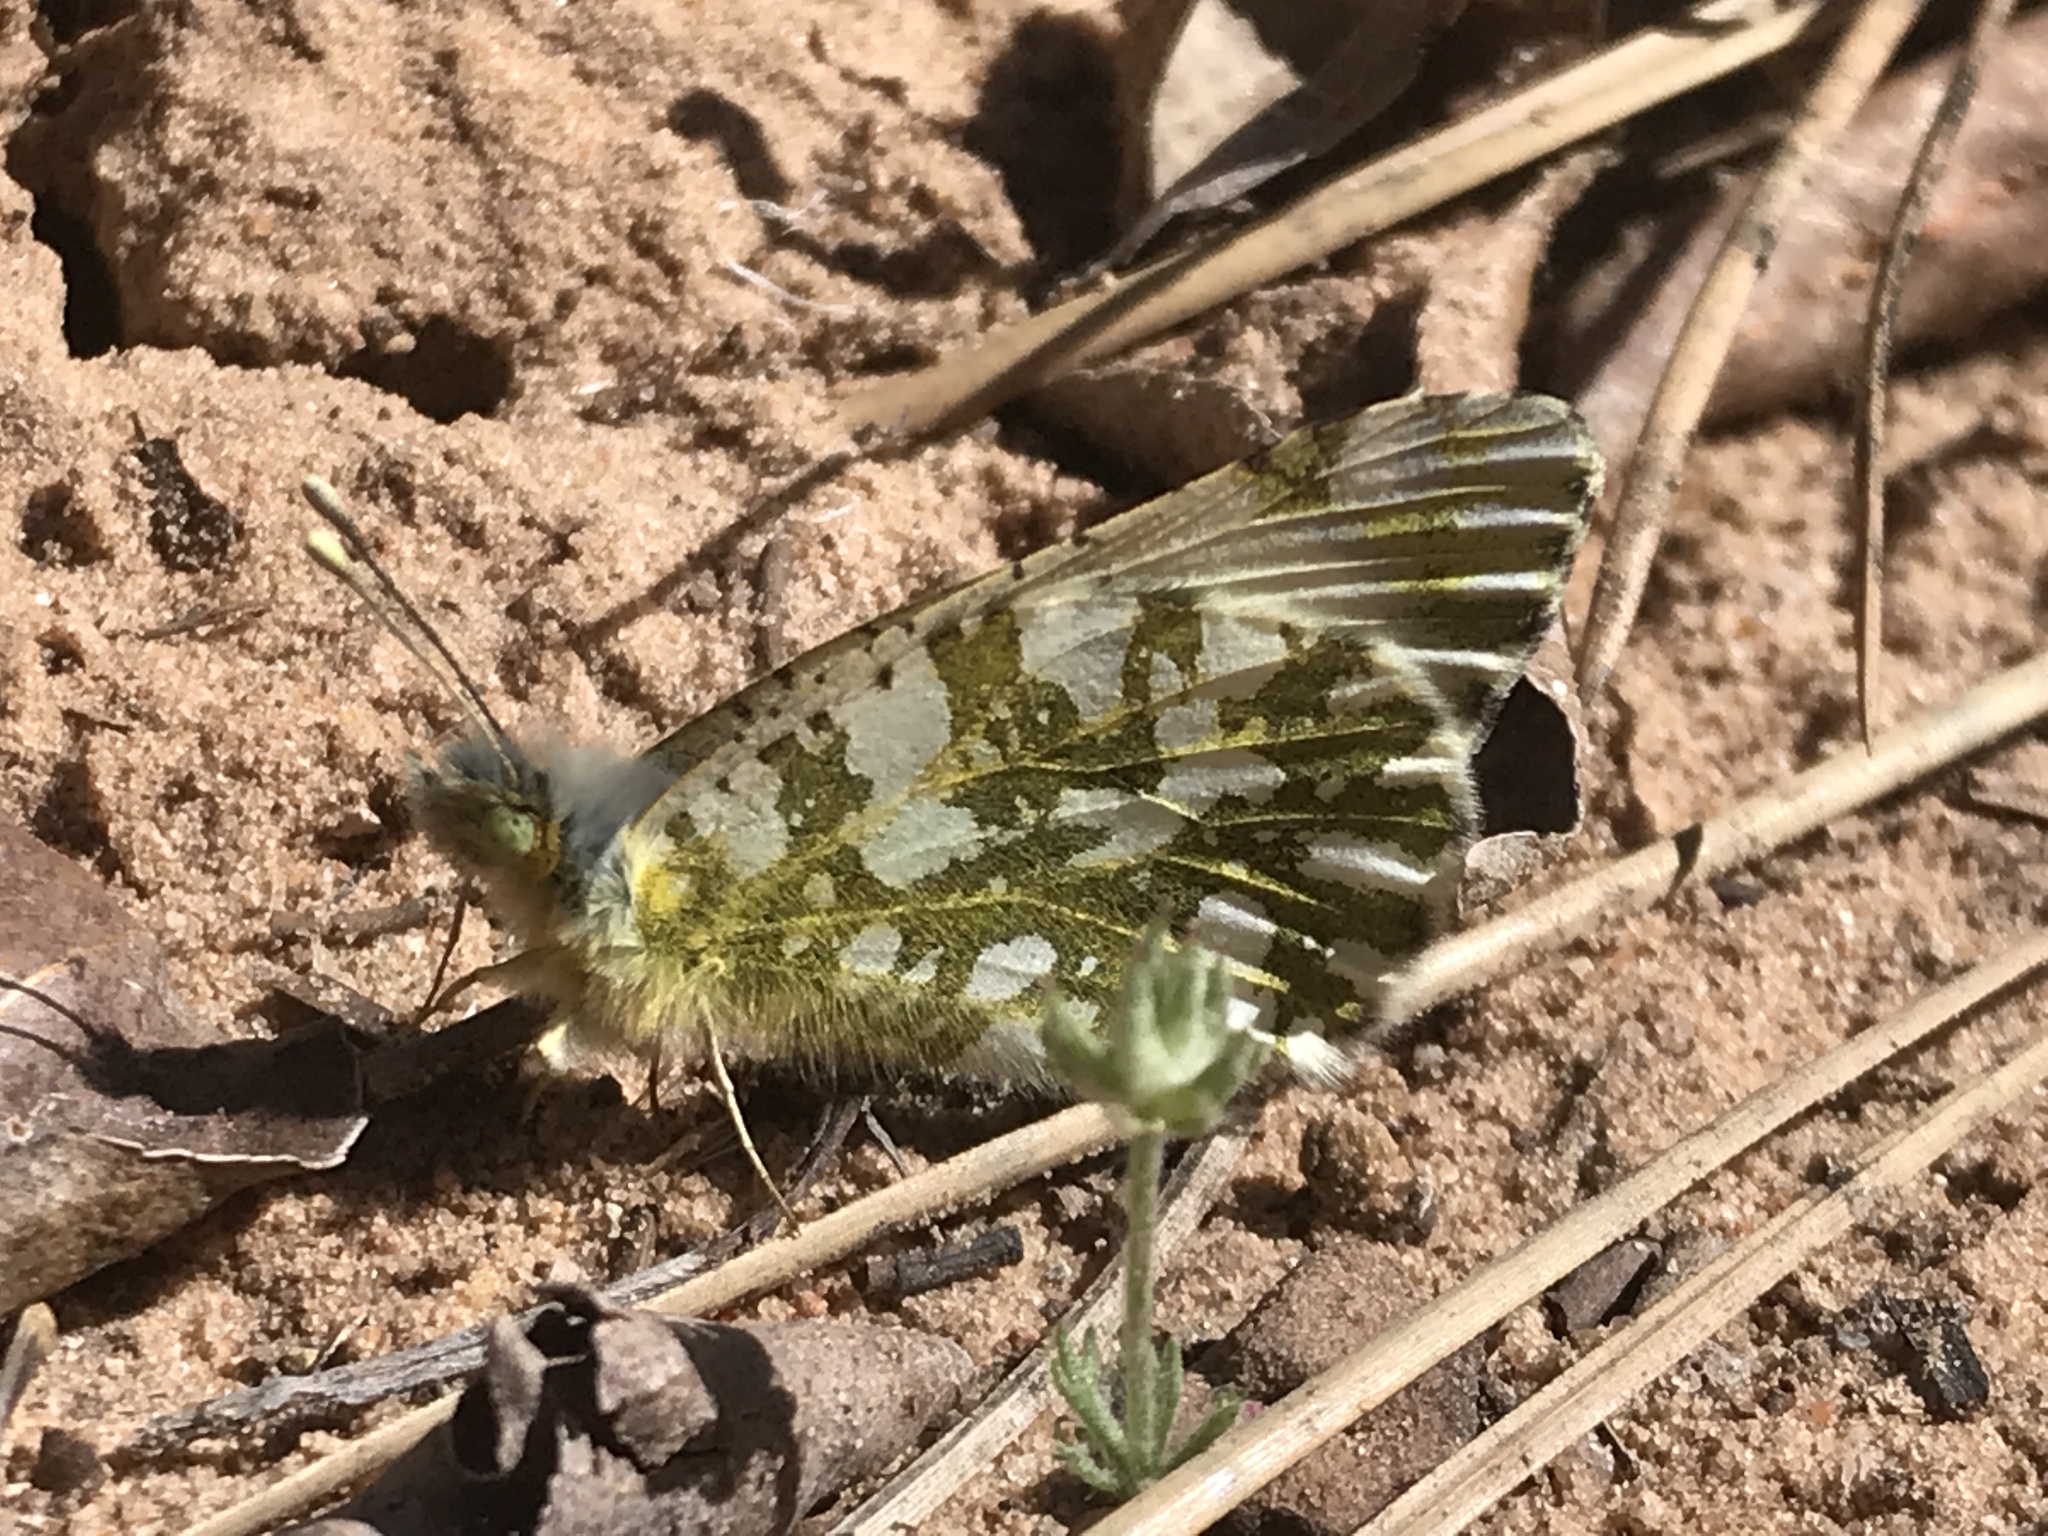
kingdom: Animalia
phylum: Arthropoda
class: Insecta
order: Lepidoptera
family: Pieridae
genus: Euchloe
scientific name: Euchloe ausonides
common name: Creamy marblewing
